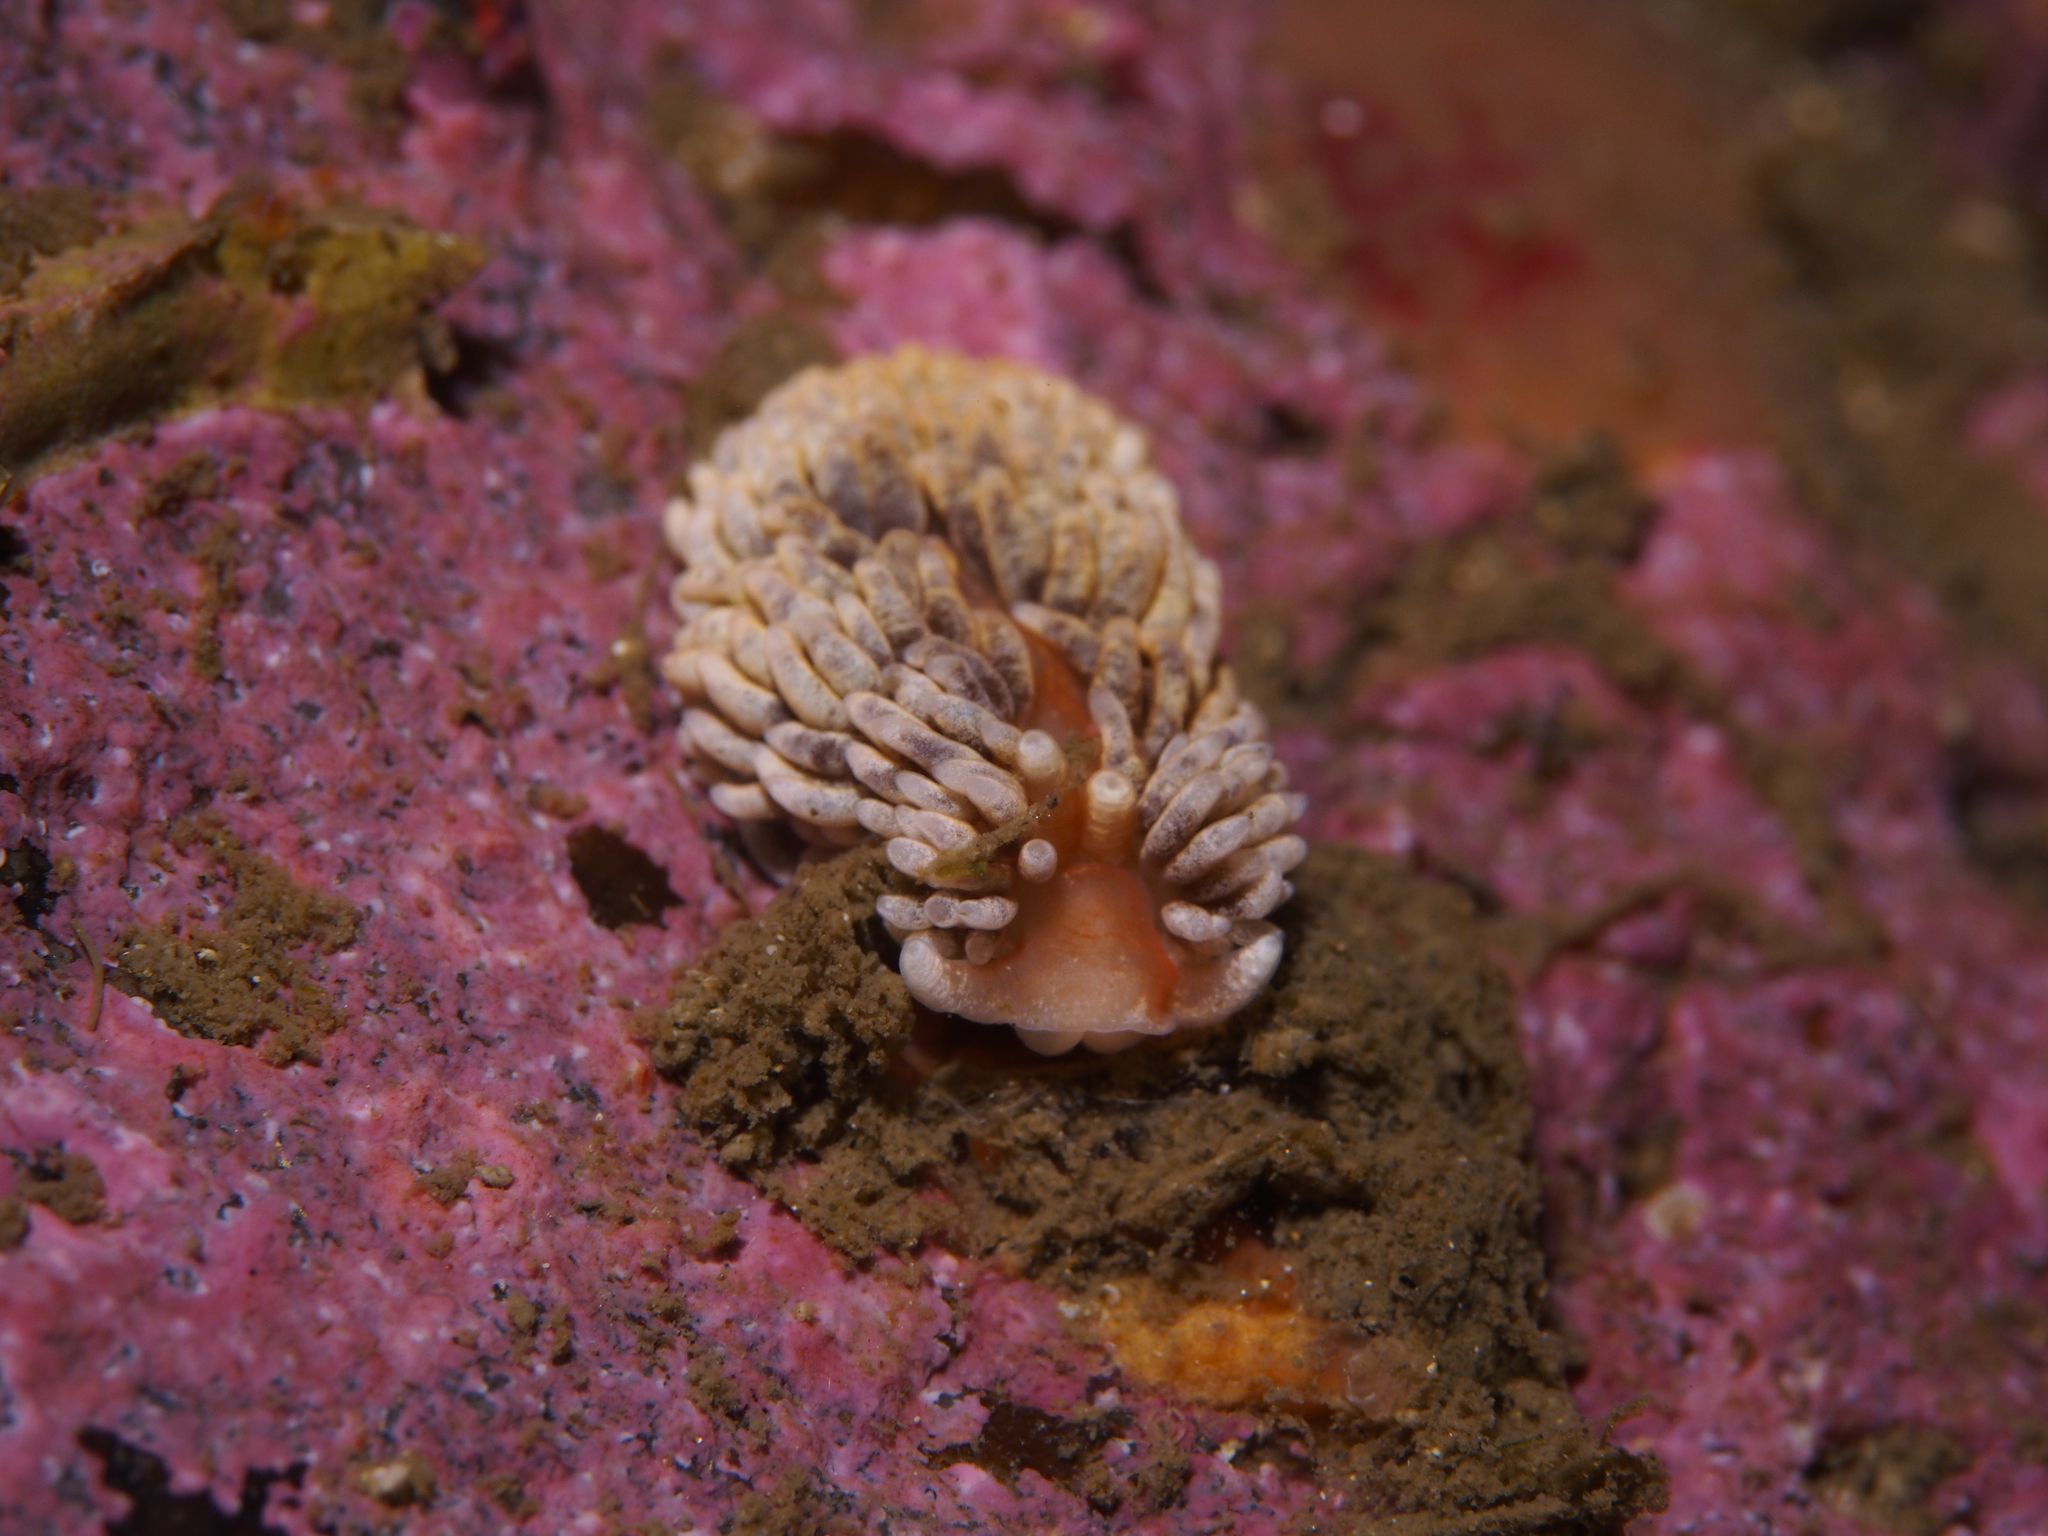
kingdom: Animalia
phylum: Mollusca
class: Gastropoda
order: Nudibranchia
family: Aeolidiidae
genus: Aeolidiella
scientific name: Aeolidiella glauca
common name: Orange-brown aeolid
